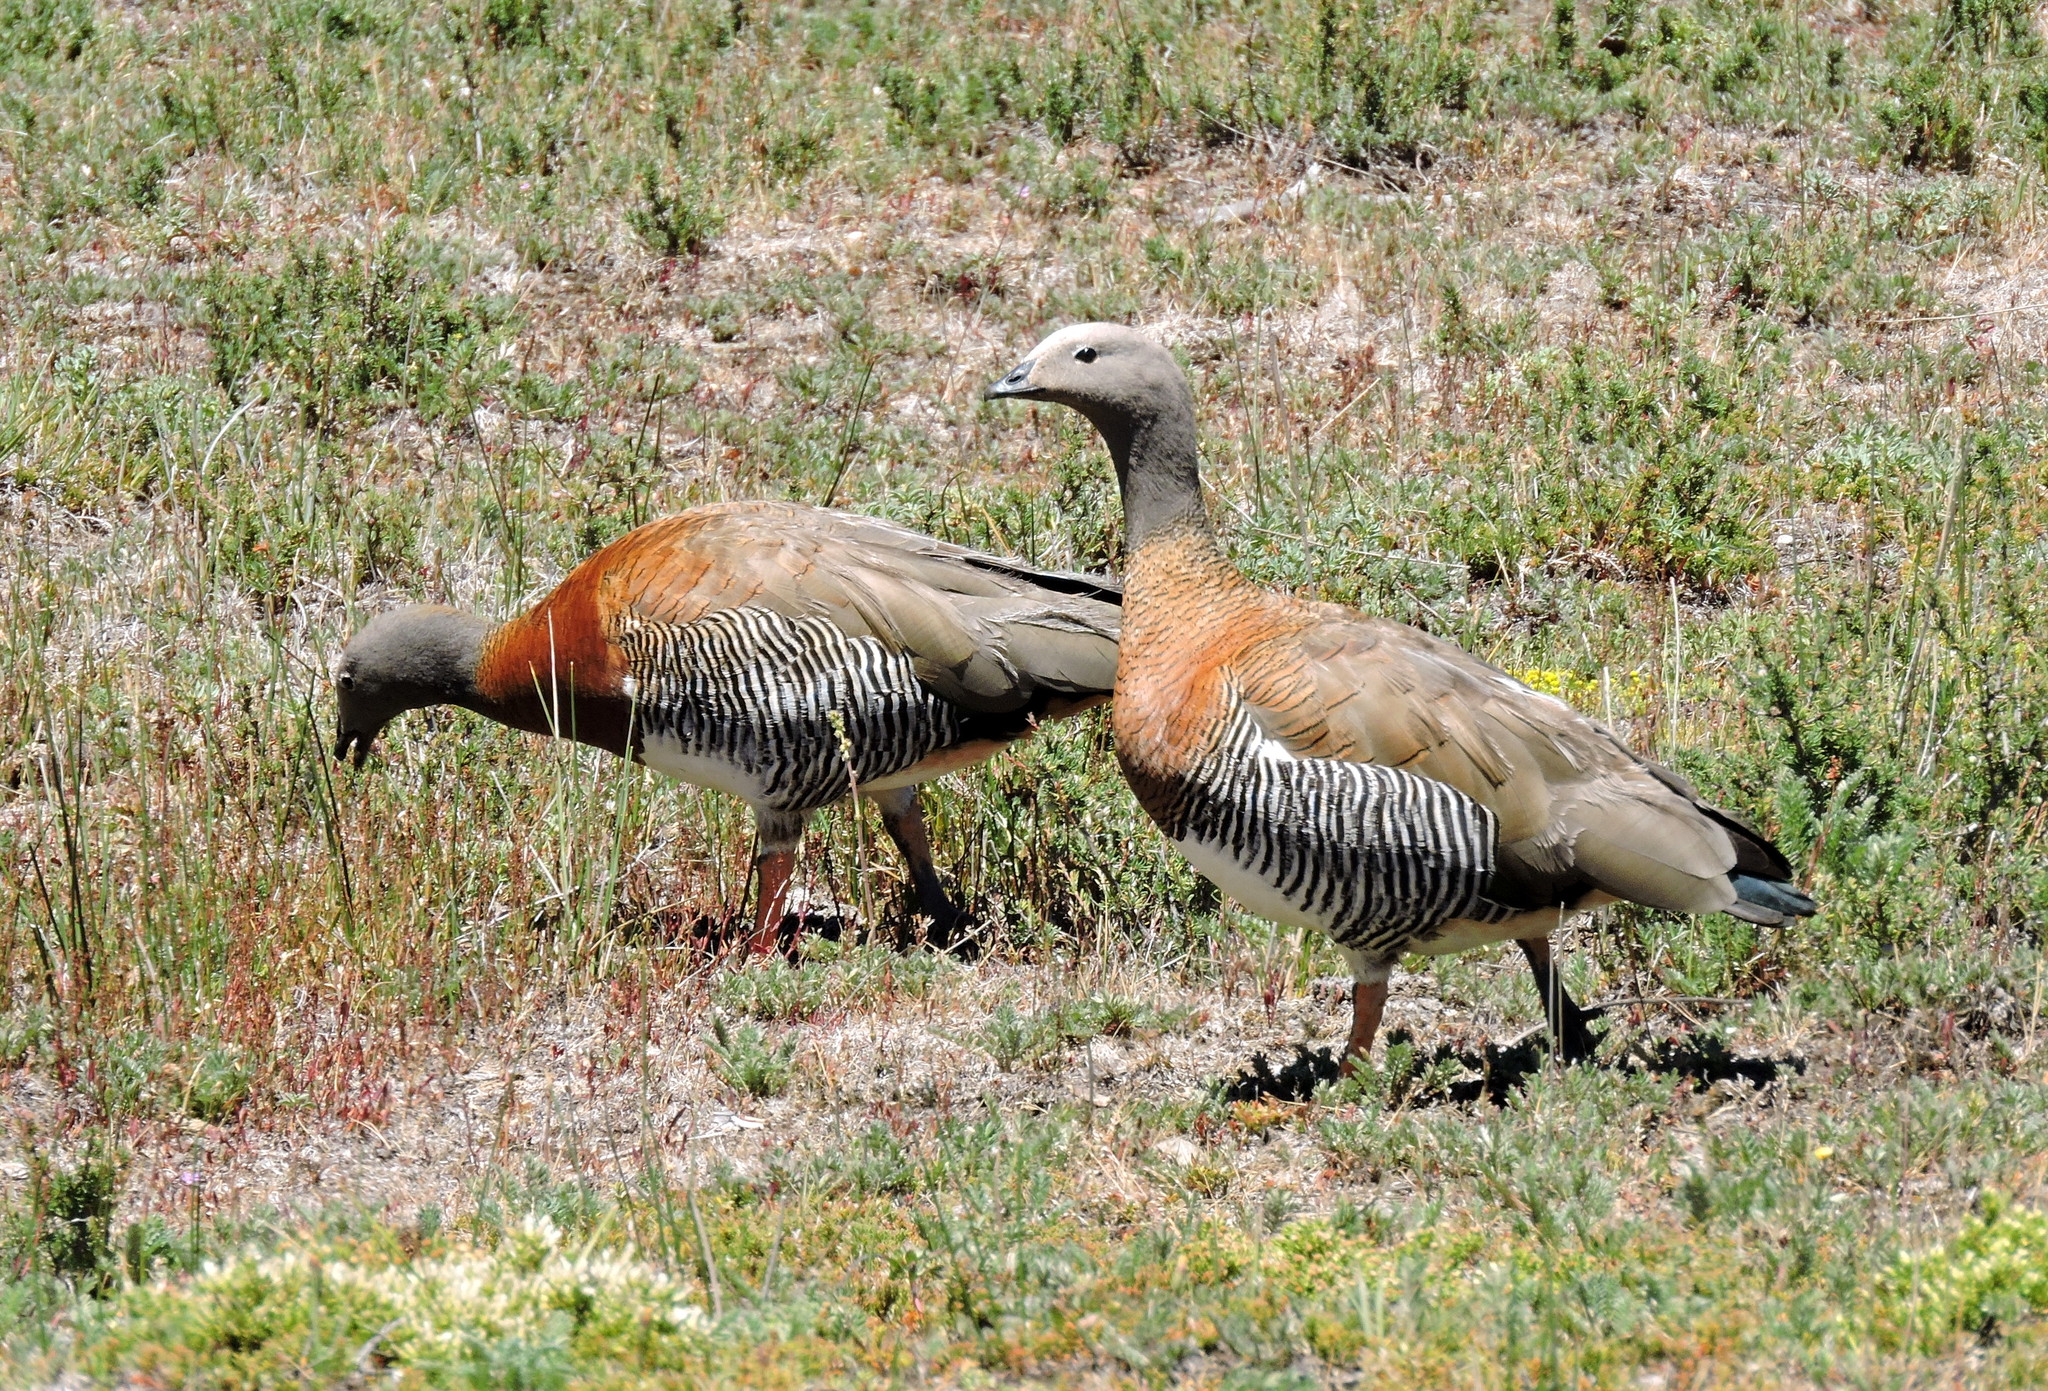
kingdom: Animalia
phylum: Chordata
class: Aves
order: Anseriformes
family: Anatidae
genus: Chloephaga
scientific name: Chloephaga poliocephala
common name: Ashy-headed goose
